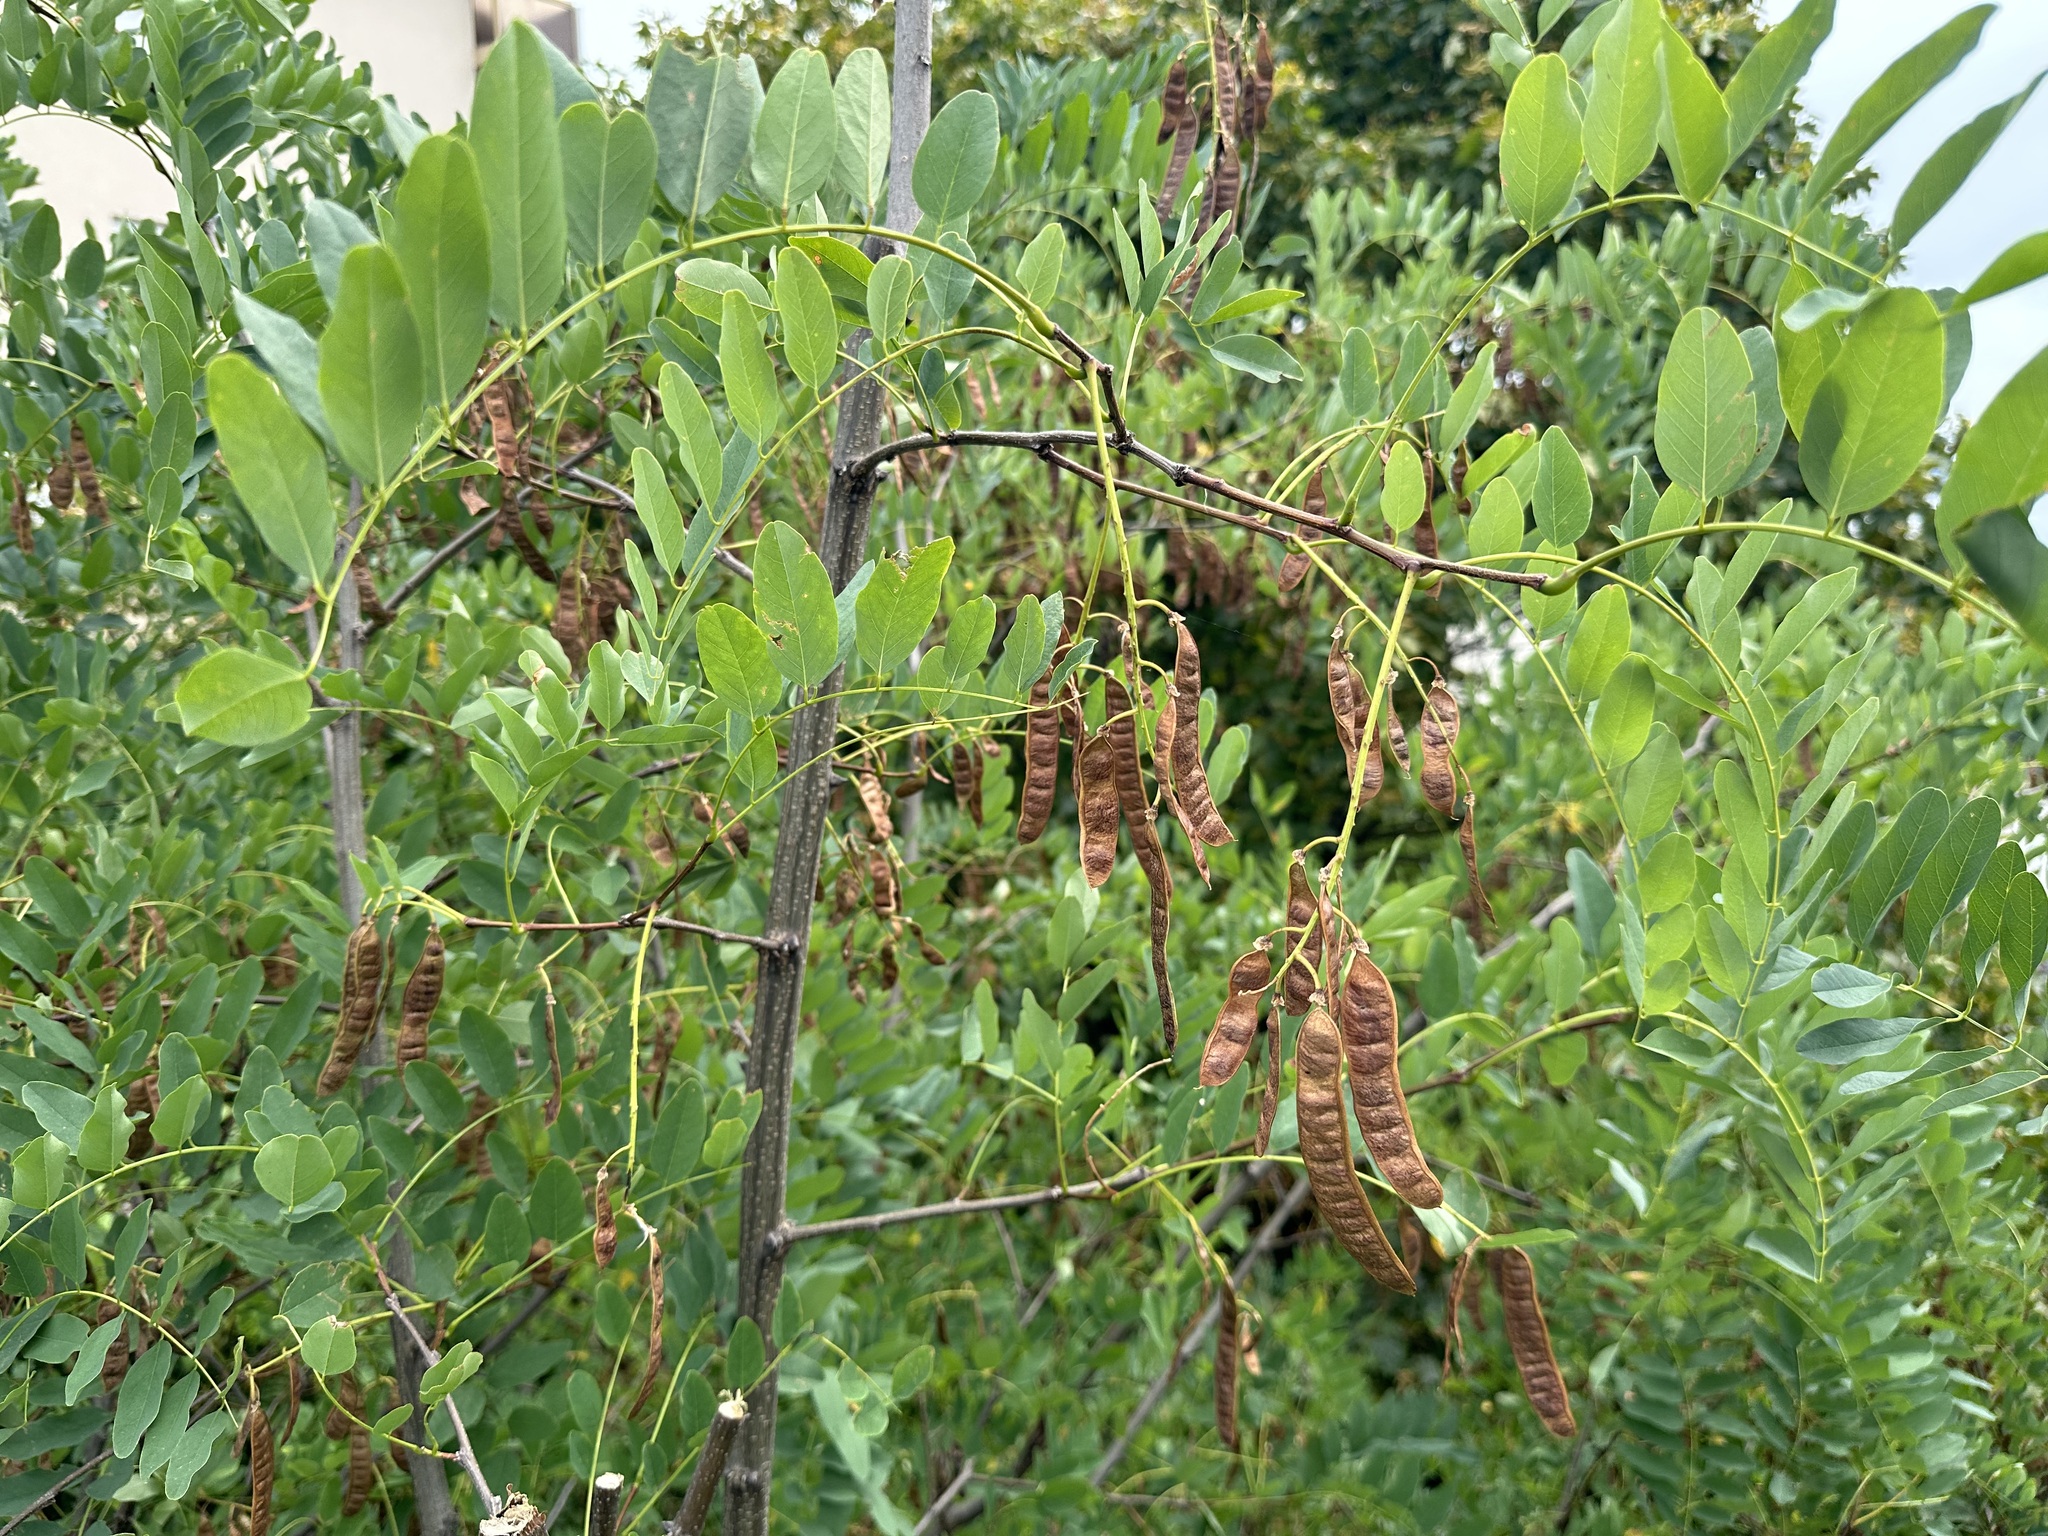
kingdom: Plantae
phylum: Tracheophyta
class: Magnoliopsida
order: Fabales
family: Fabaceae
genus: Robinia
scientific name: Robinia pseudoacacia
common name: Black locust
